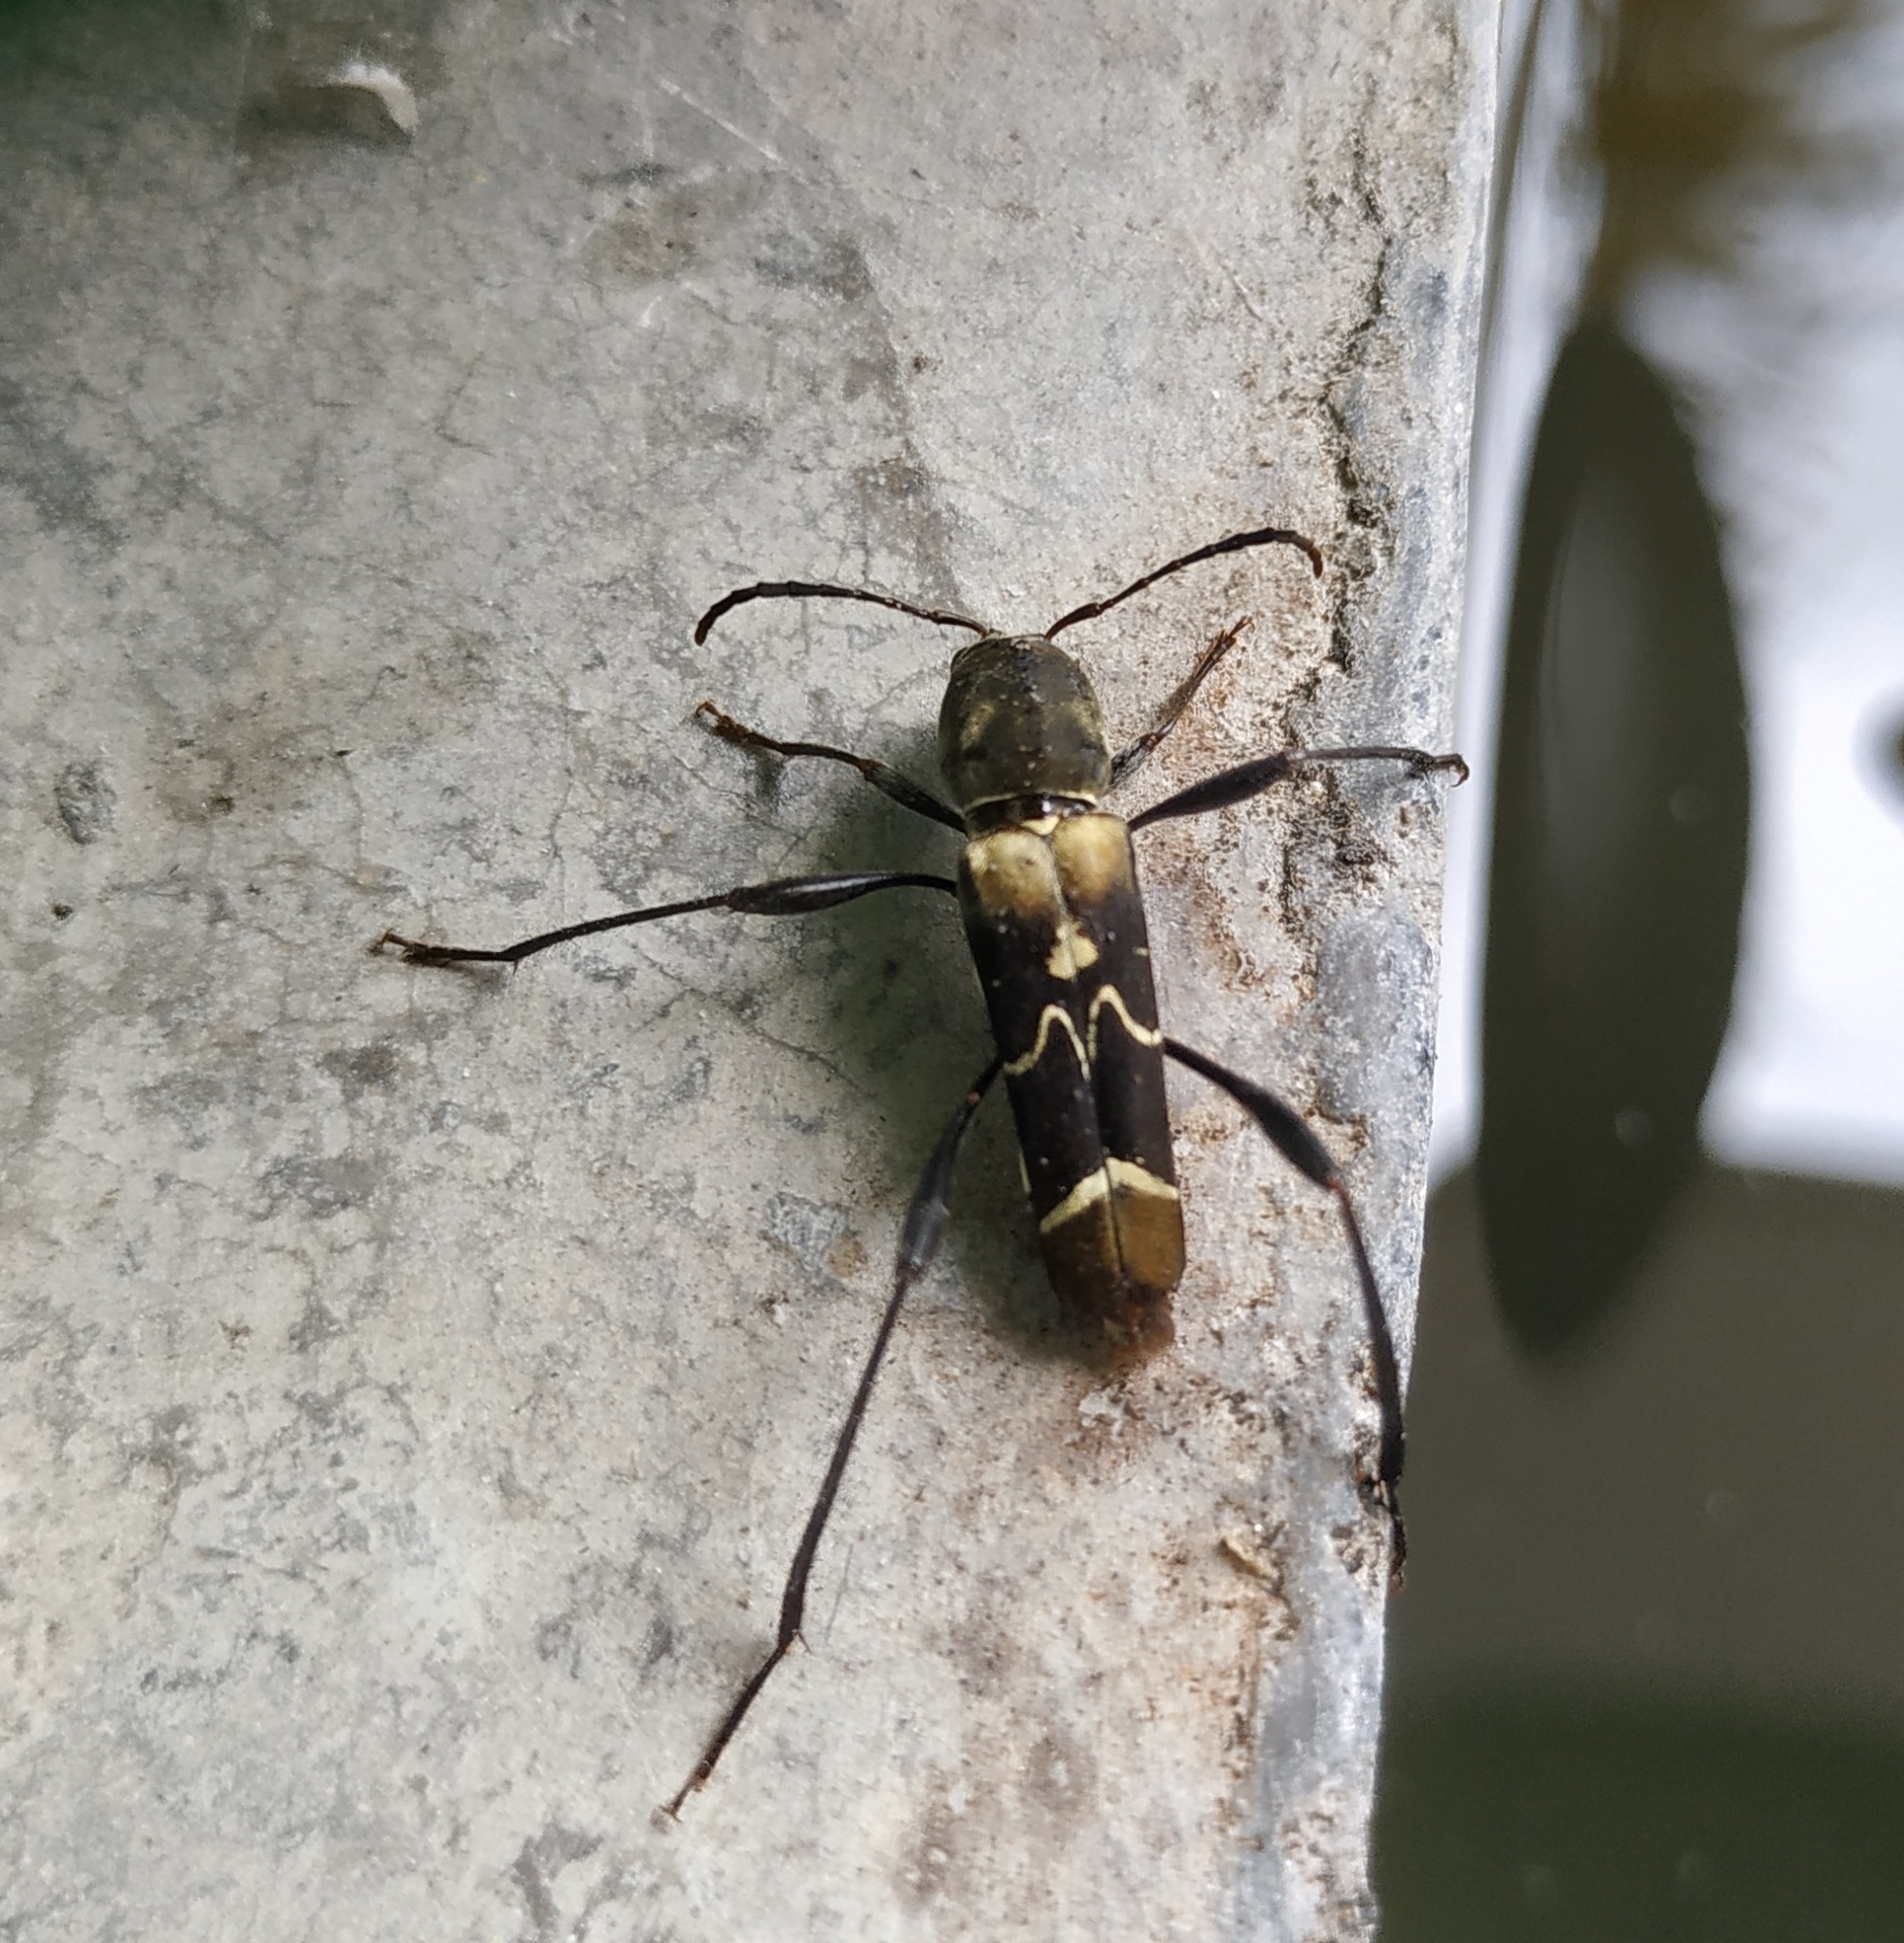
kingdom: Animalia
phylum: Arthropoda
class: Insecta
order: Coleoptera
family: Cerambycidae
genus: Neoclytus
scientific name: Neoclytus augusti
